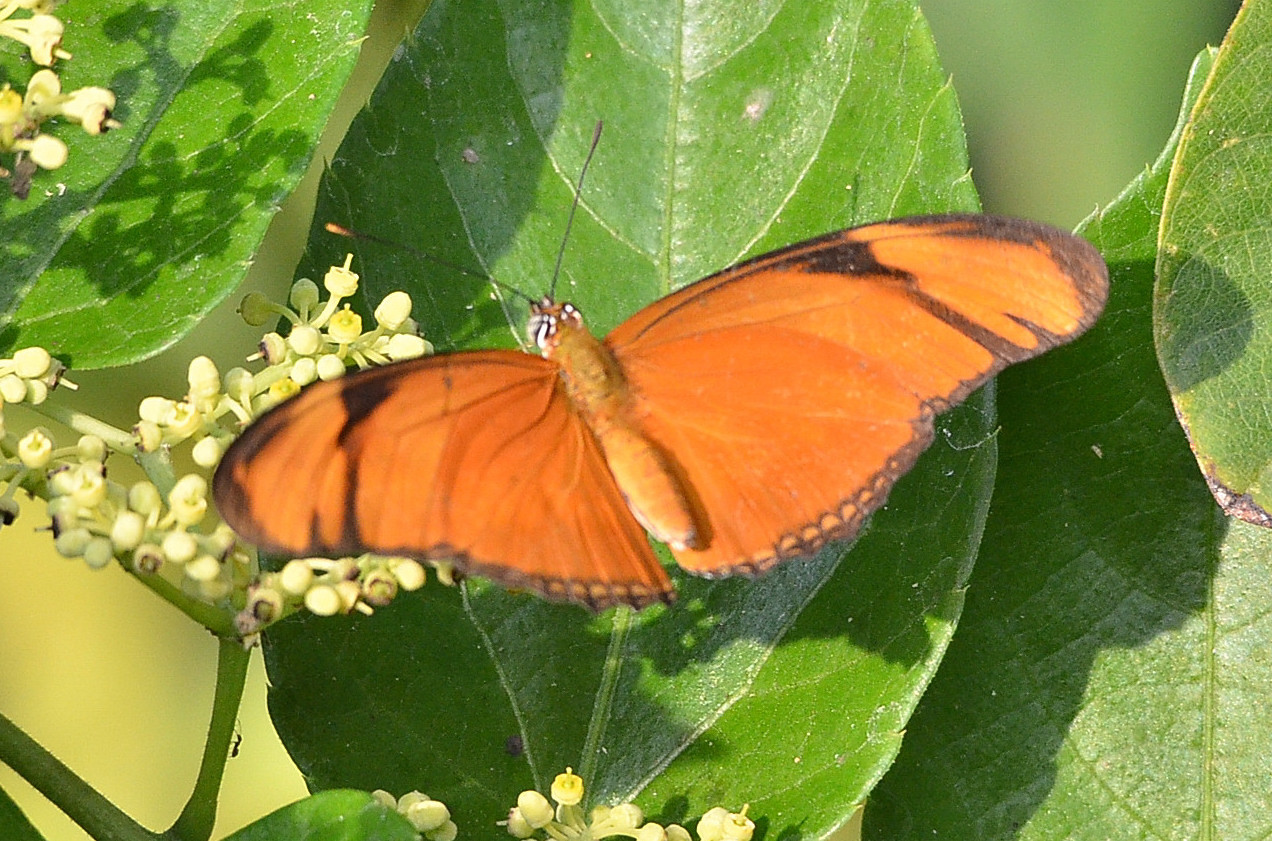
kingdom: Animalia
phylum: Arthropoda
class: Insecta
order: Lepidoptera
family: Nymphalidae
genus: Dryas
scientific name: Dryas iulia
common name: Flambeau
